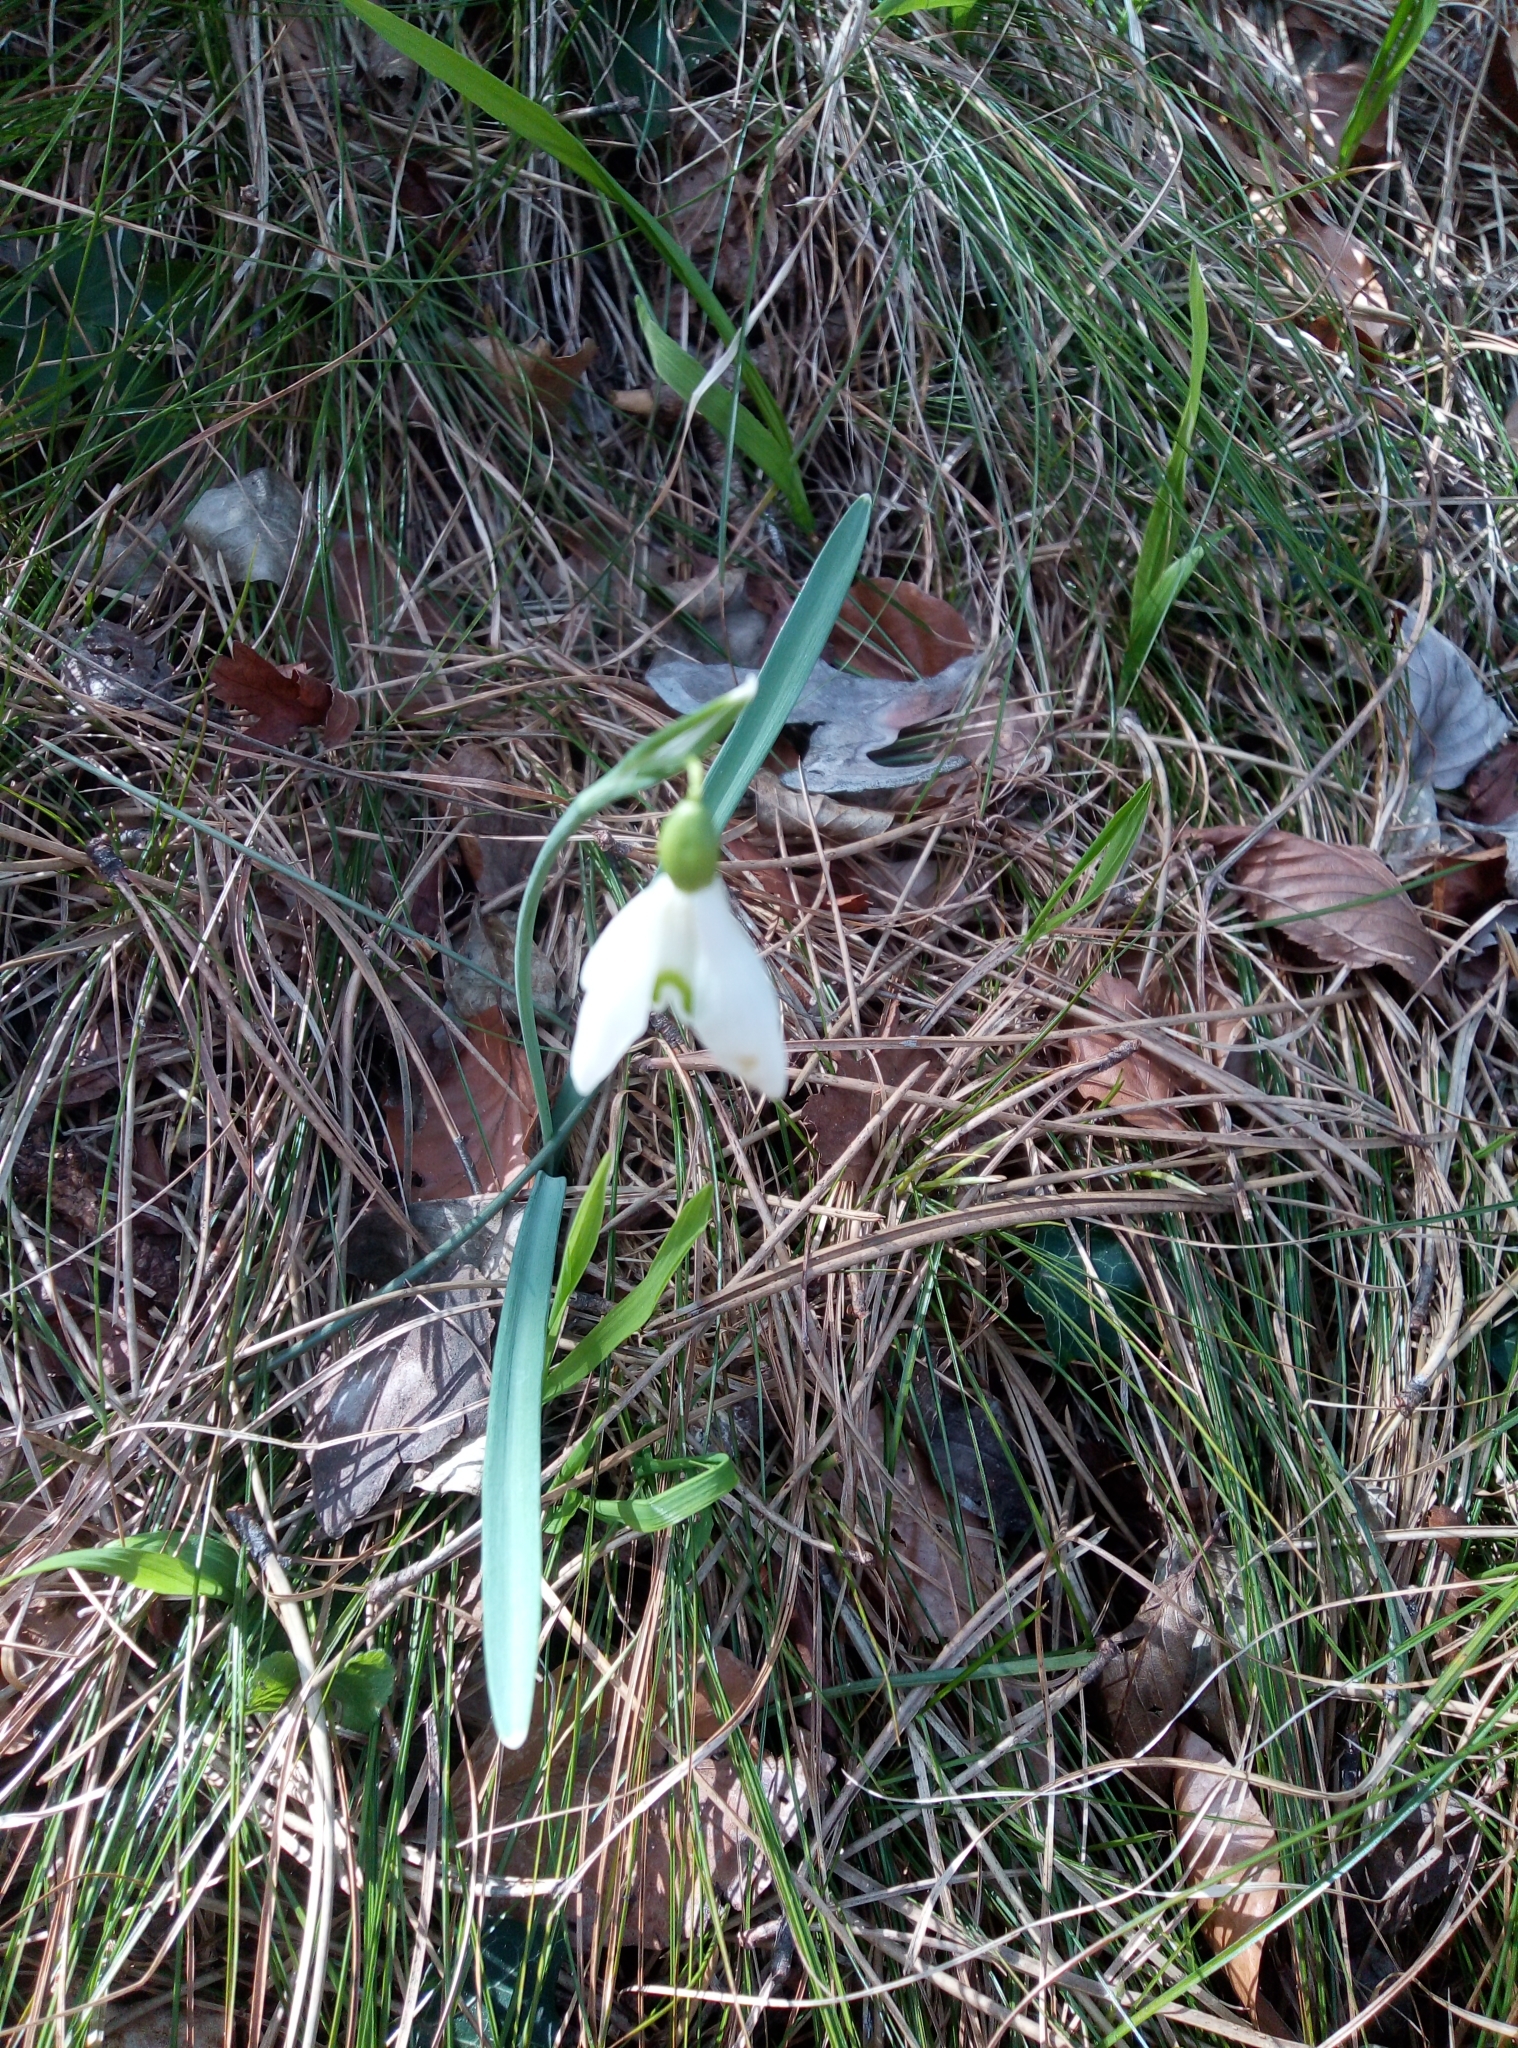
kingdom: Plantae
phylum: Tracheophyta
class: Liliopsida
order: Asparagales
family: Amaryllidaceae
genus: Galanthus
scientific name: Galanthus nivalis
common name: Snowdrop
